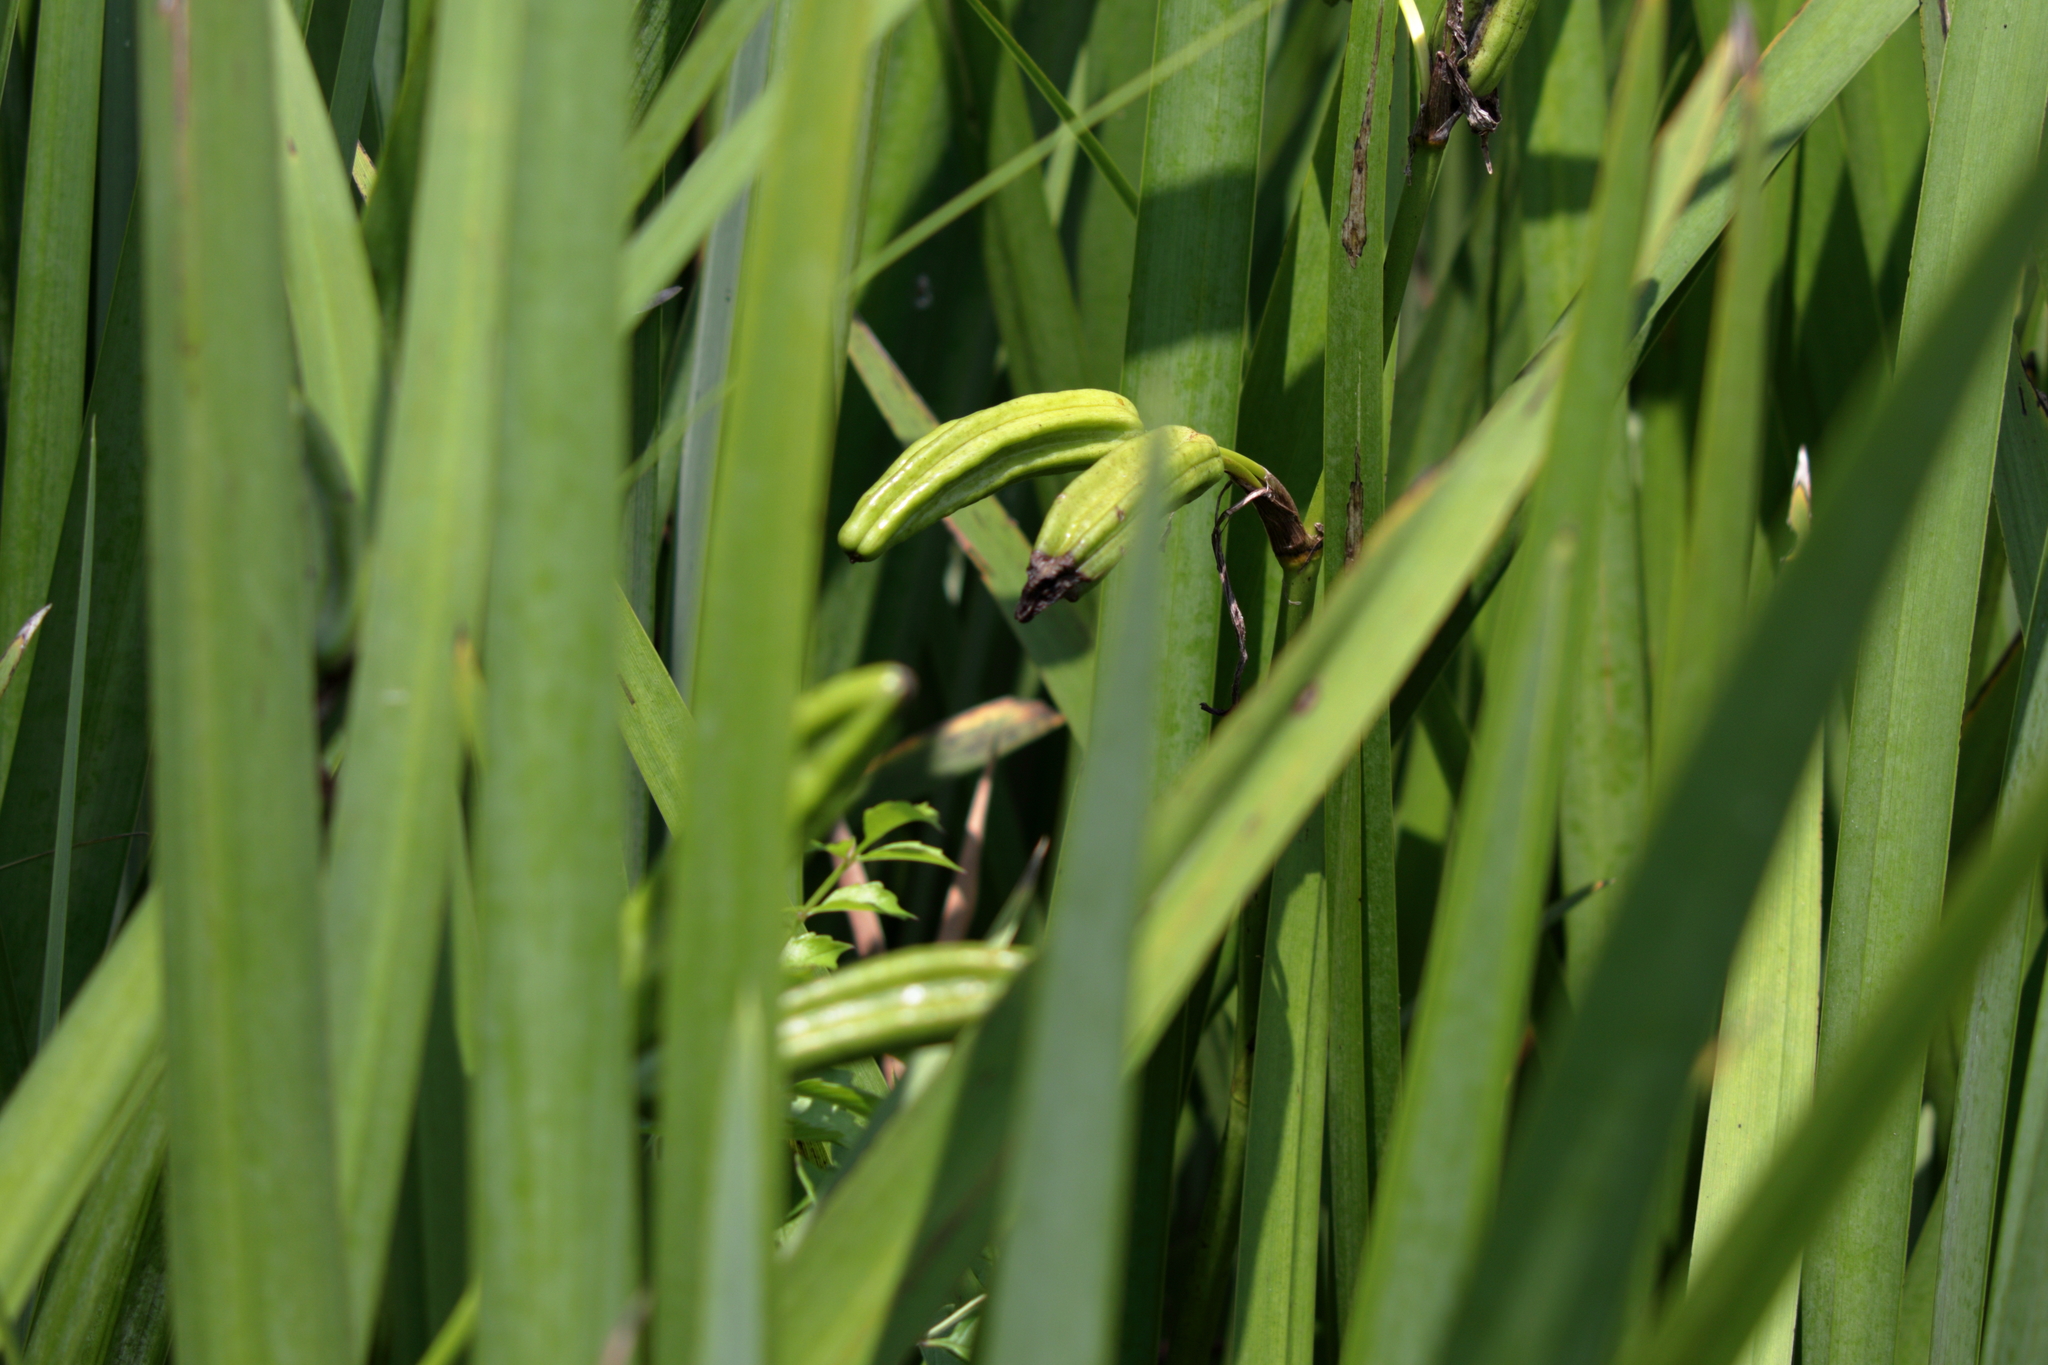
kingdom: Plantae
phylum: Tracheophyta
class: Liliopsida
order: Asparagales
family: Iridaceae
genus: Iris
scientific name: Iris pseudacorus
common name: Yellow flag
